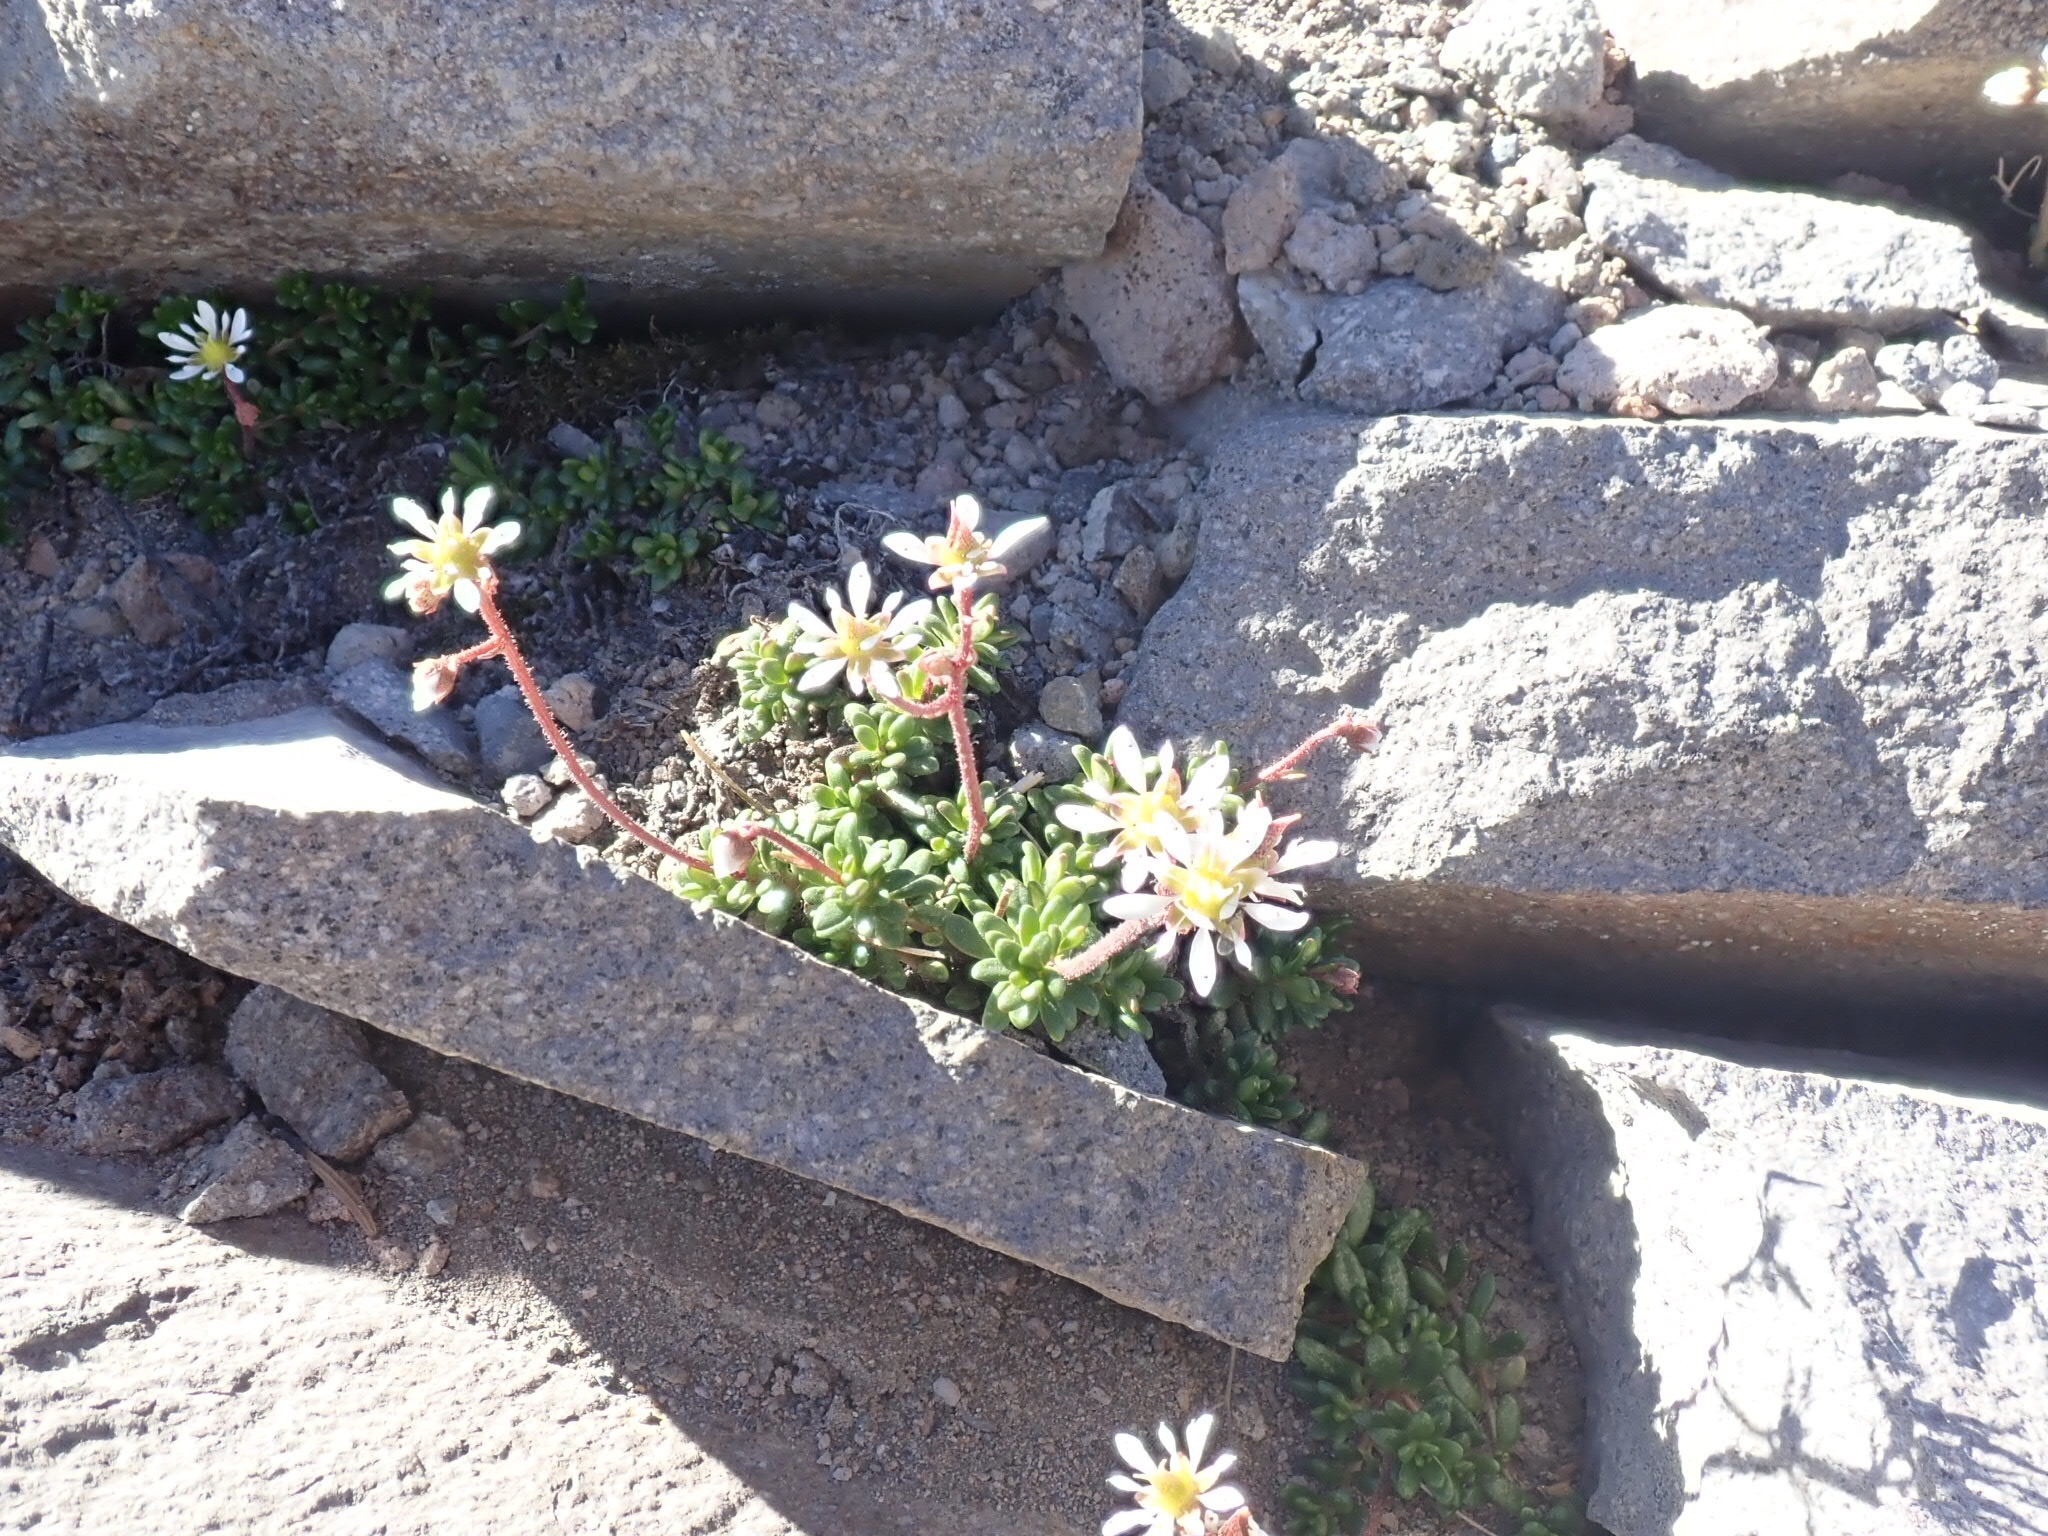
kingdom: Plantae
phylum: Tracheophyta
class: Magnoliopsida
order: Saxifragales
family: Saxifragaceae
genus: Micranthes
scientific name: Micranthes tolmiei
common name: Tolmie's saxifrage
